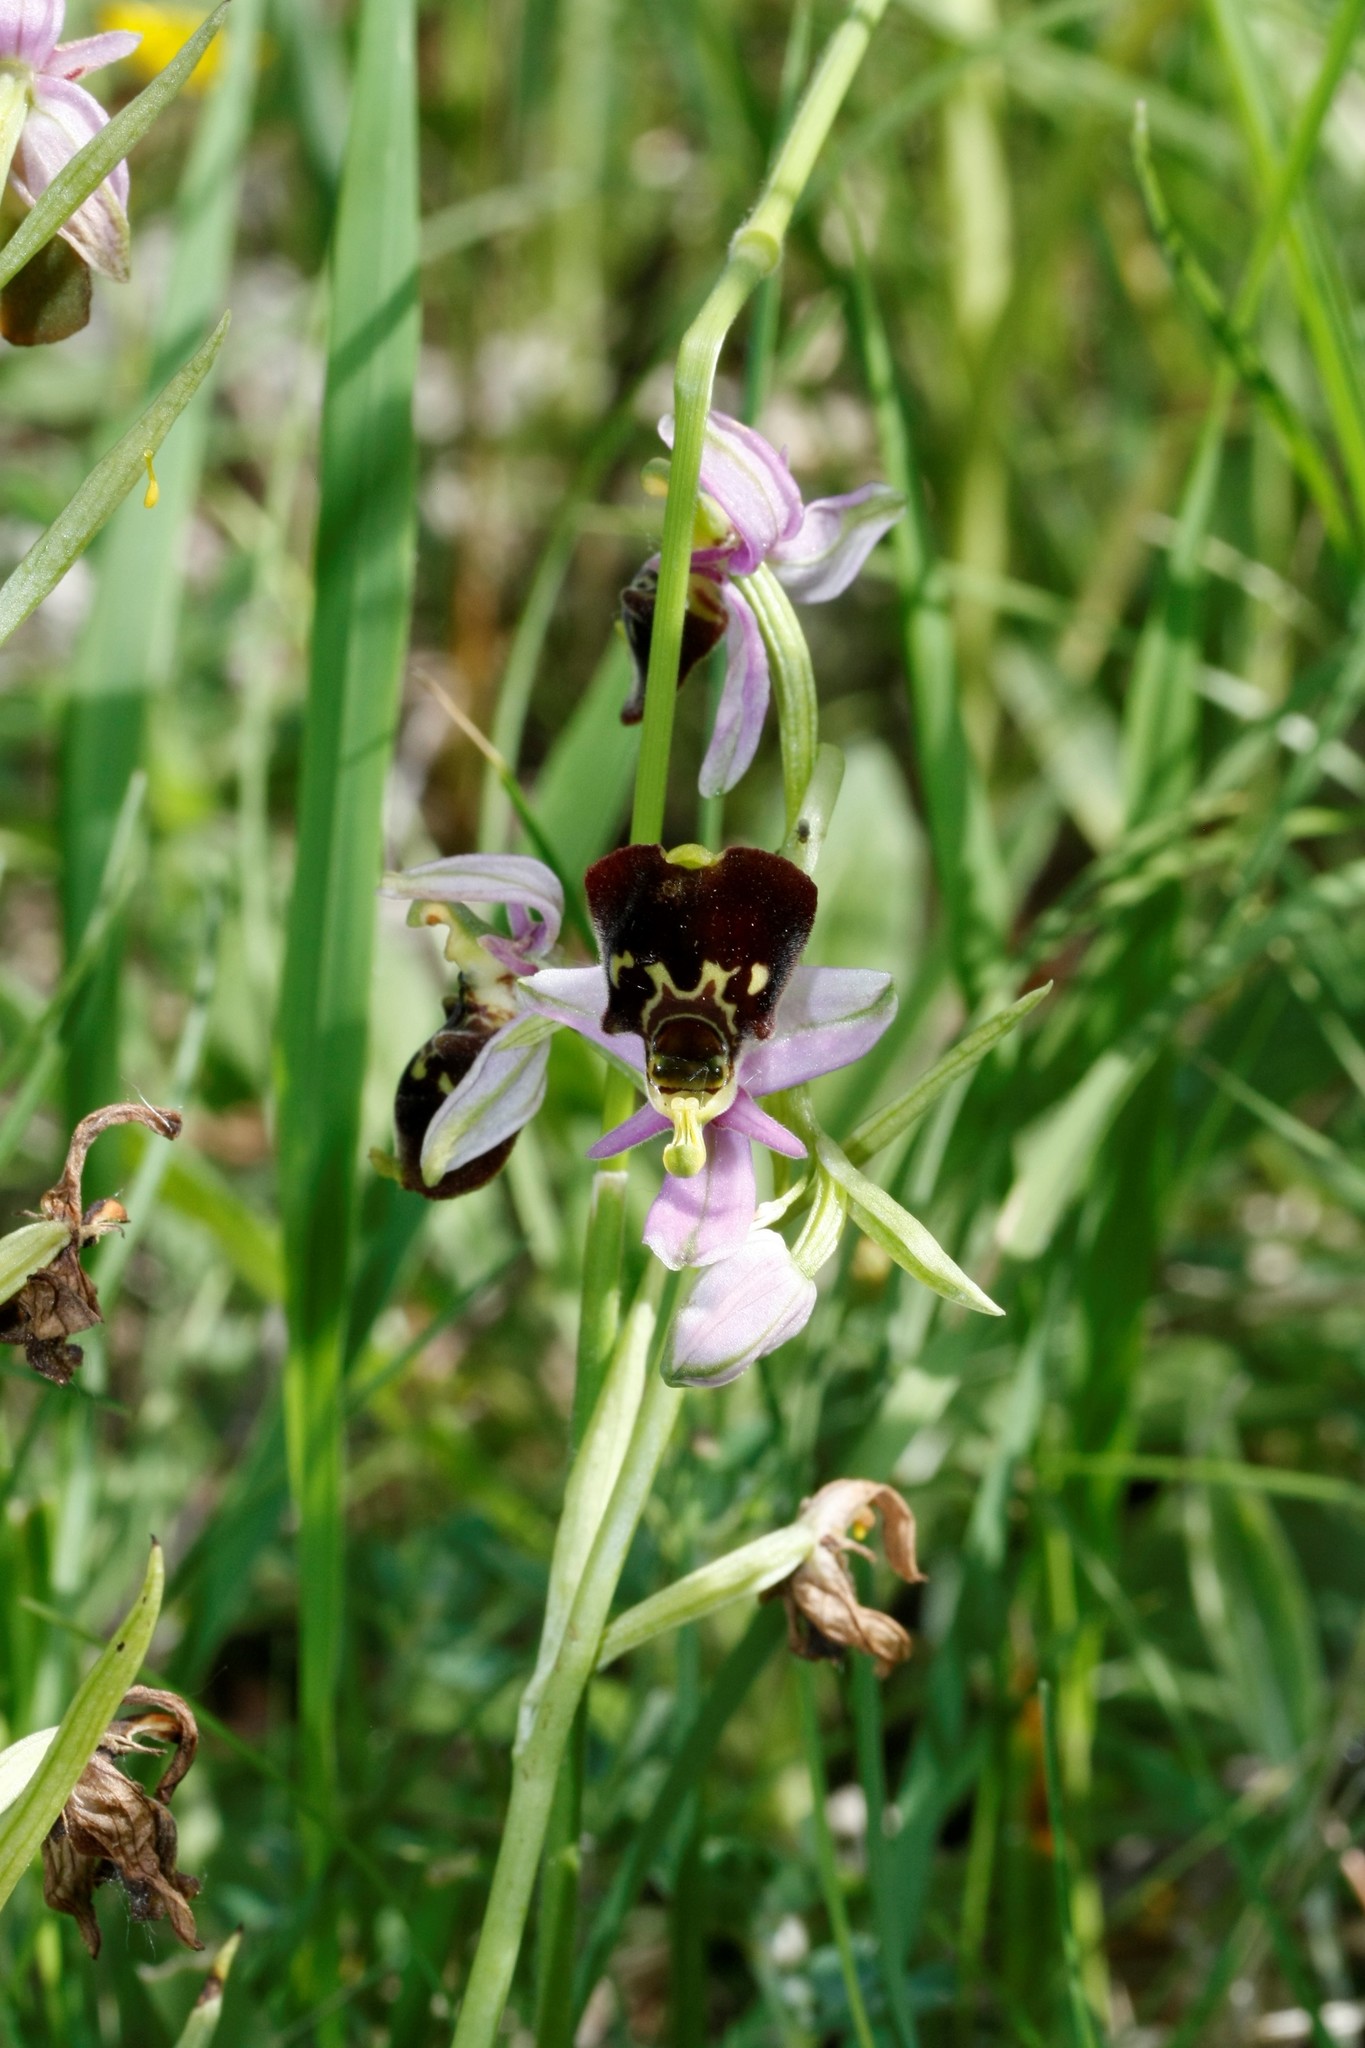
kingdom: Plantae
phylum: Tracheophyta
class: Liliopsida
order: Asparagales
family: Orchidaceae
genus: Ophrys
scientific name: Ophrys holosericea
